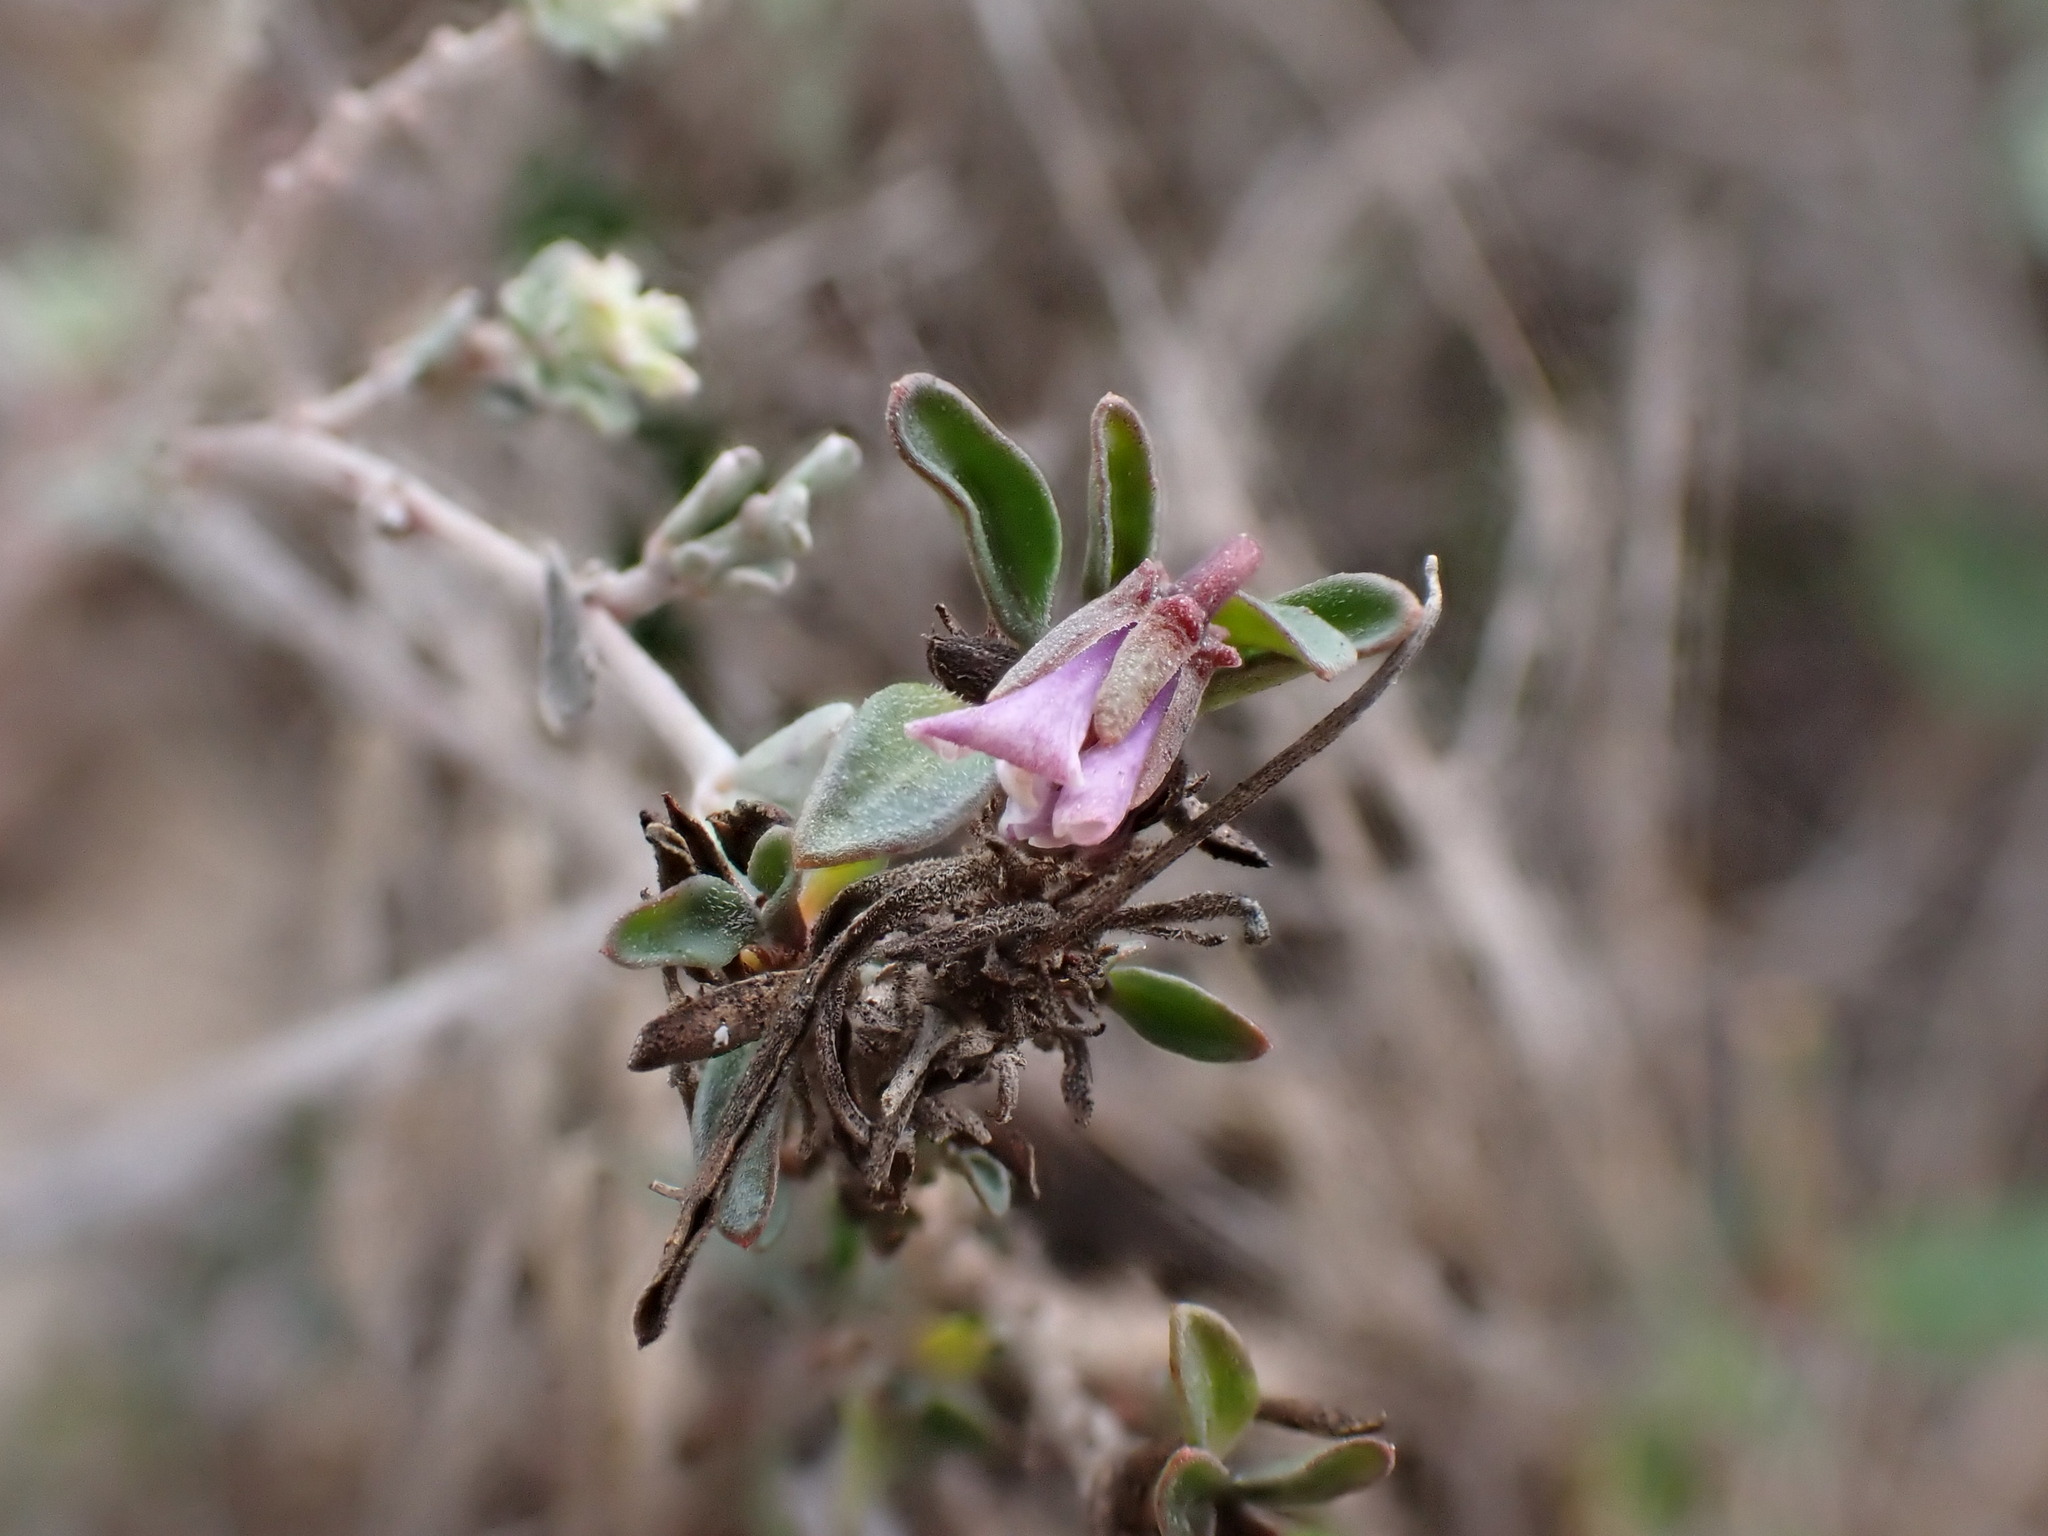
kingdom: Plantae
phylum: Tracheophyta
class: Magnoliopsida
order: Malpighiales
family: Violaceae
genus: Viola
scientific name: Viola arborescens
